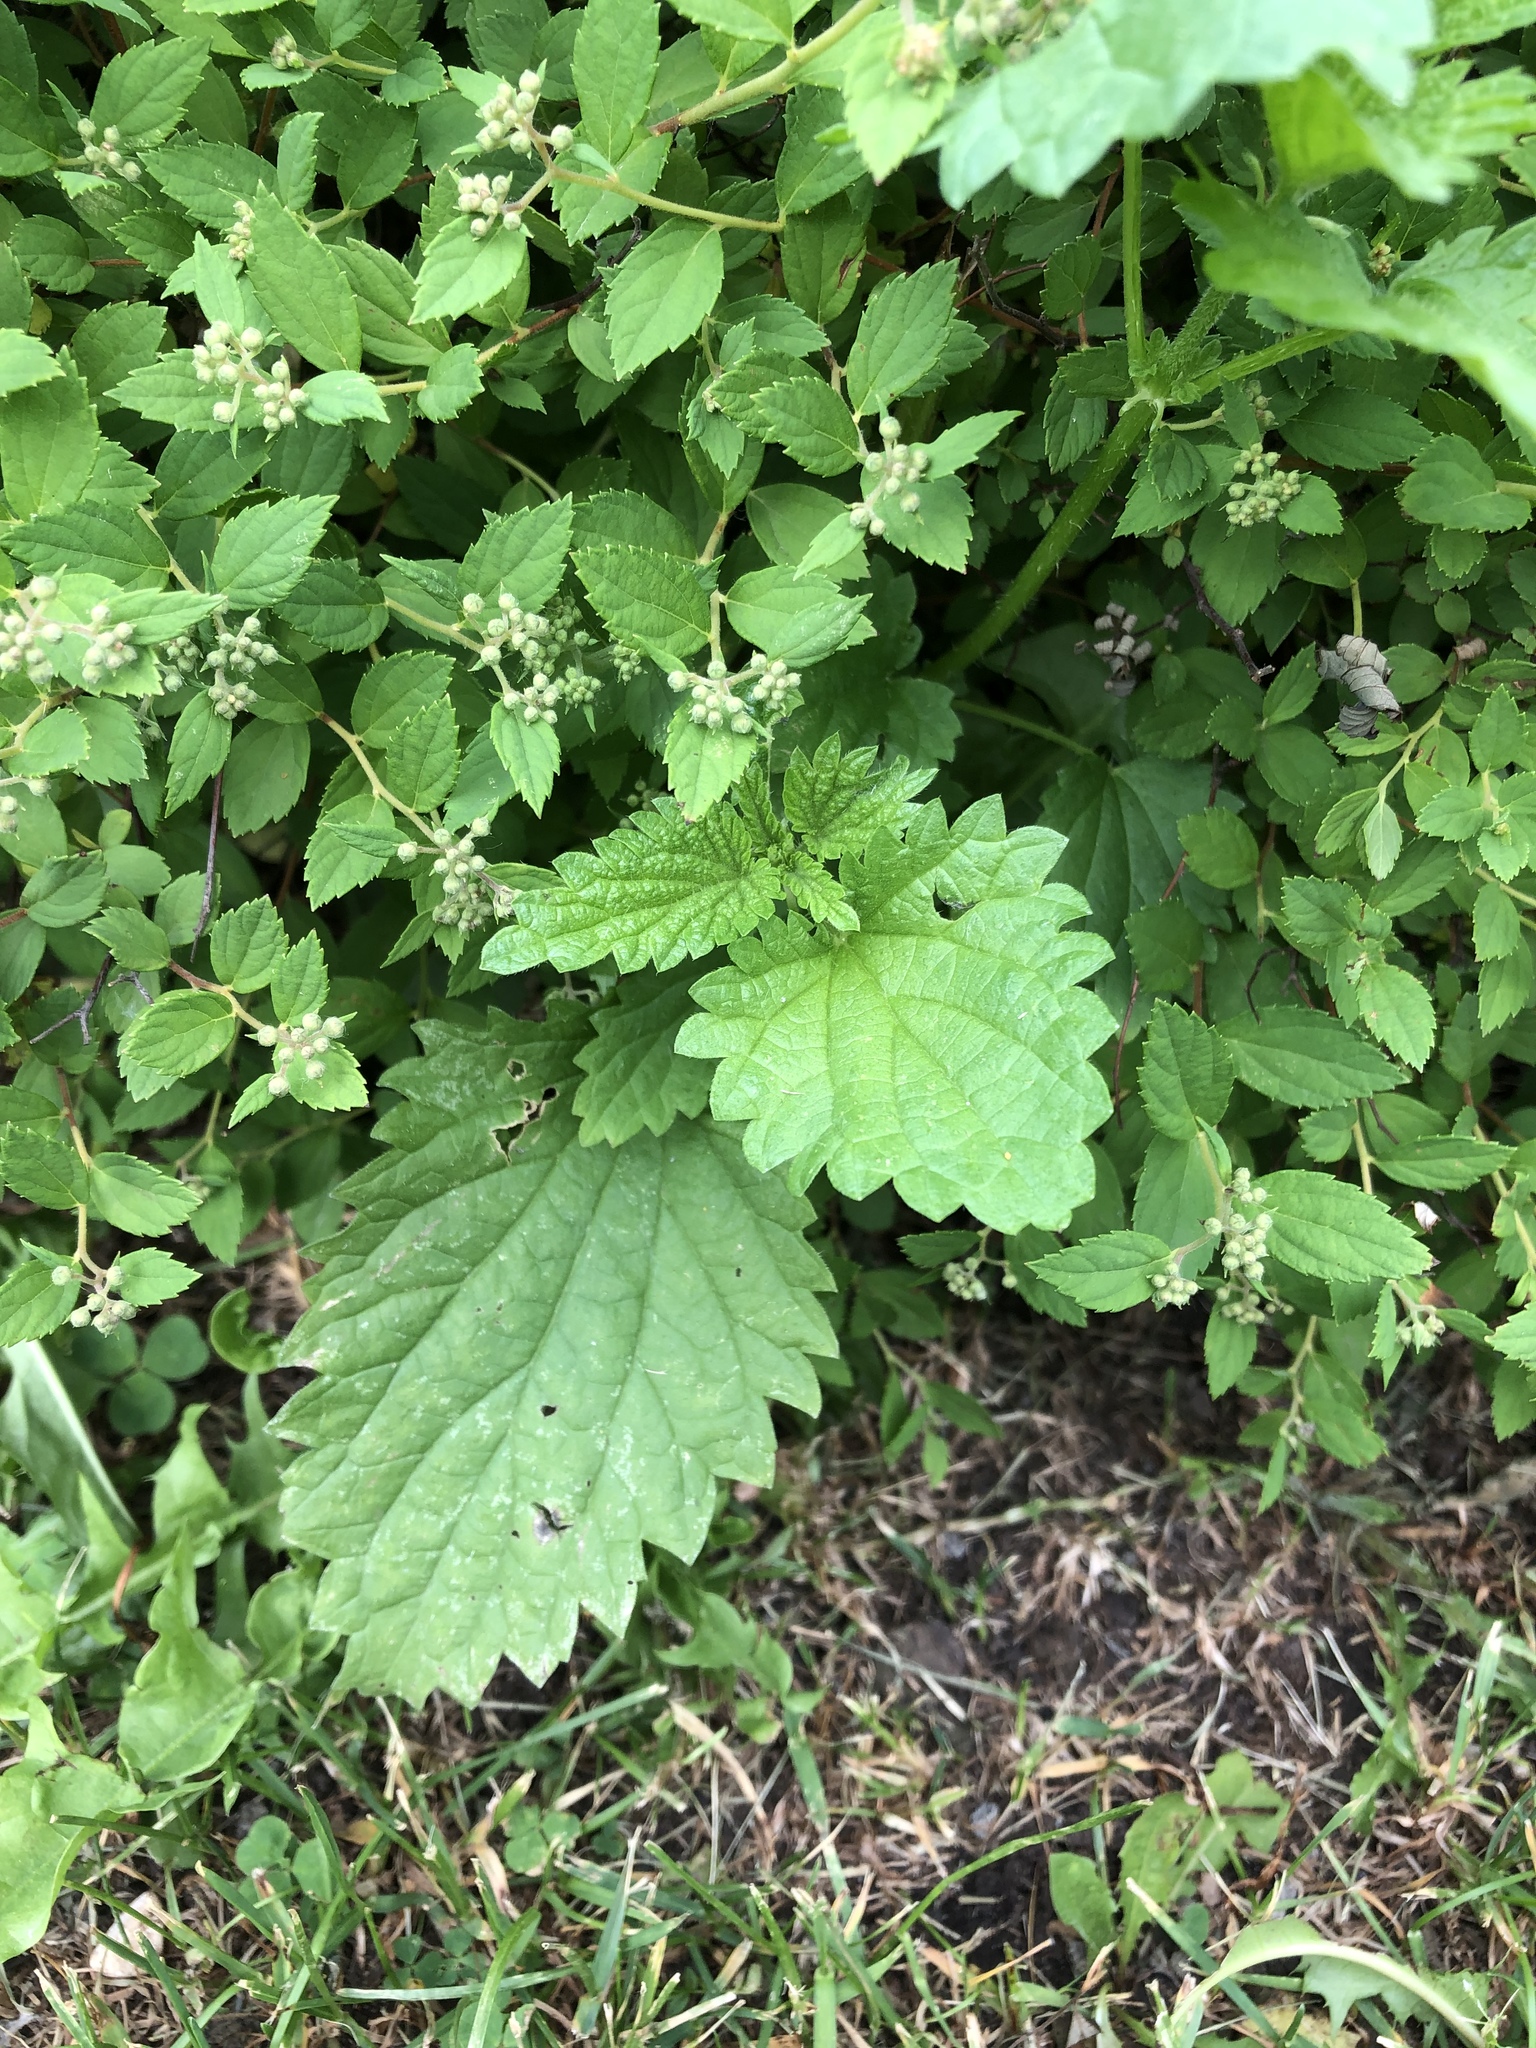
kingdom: Plantae
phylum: Tracheophyta
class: Magnoliopsida
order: Rosales
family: Urticaceae
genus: Urtica
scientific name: Urtica dioica
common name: Common nettle
